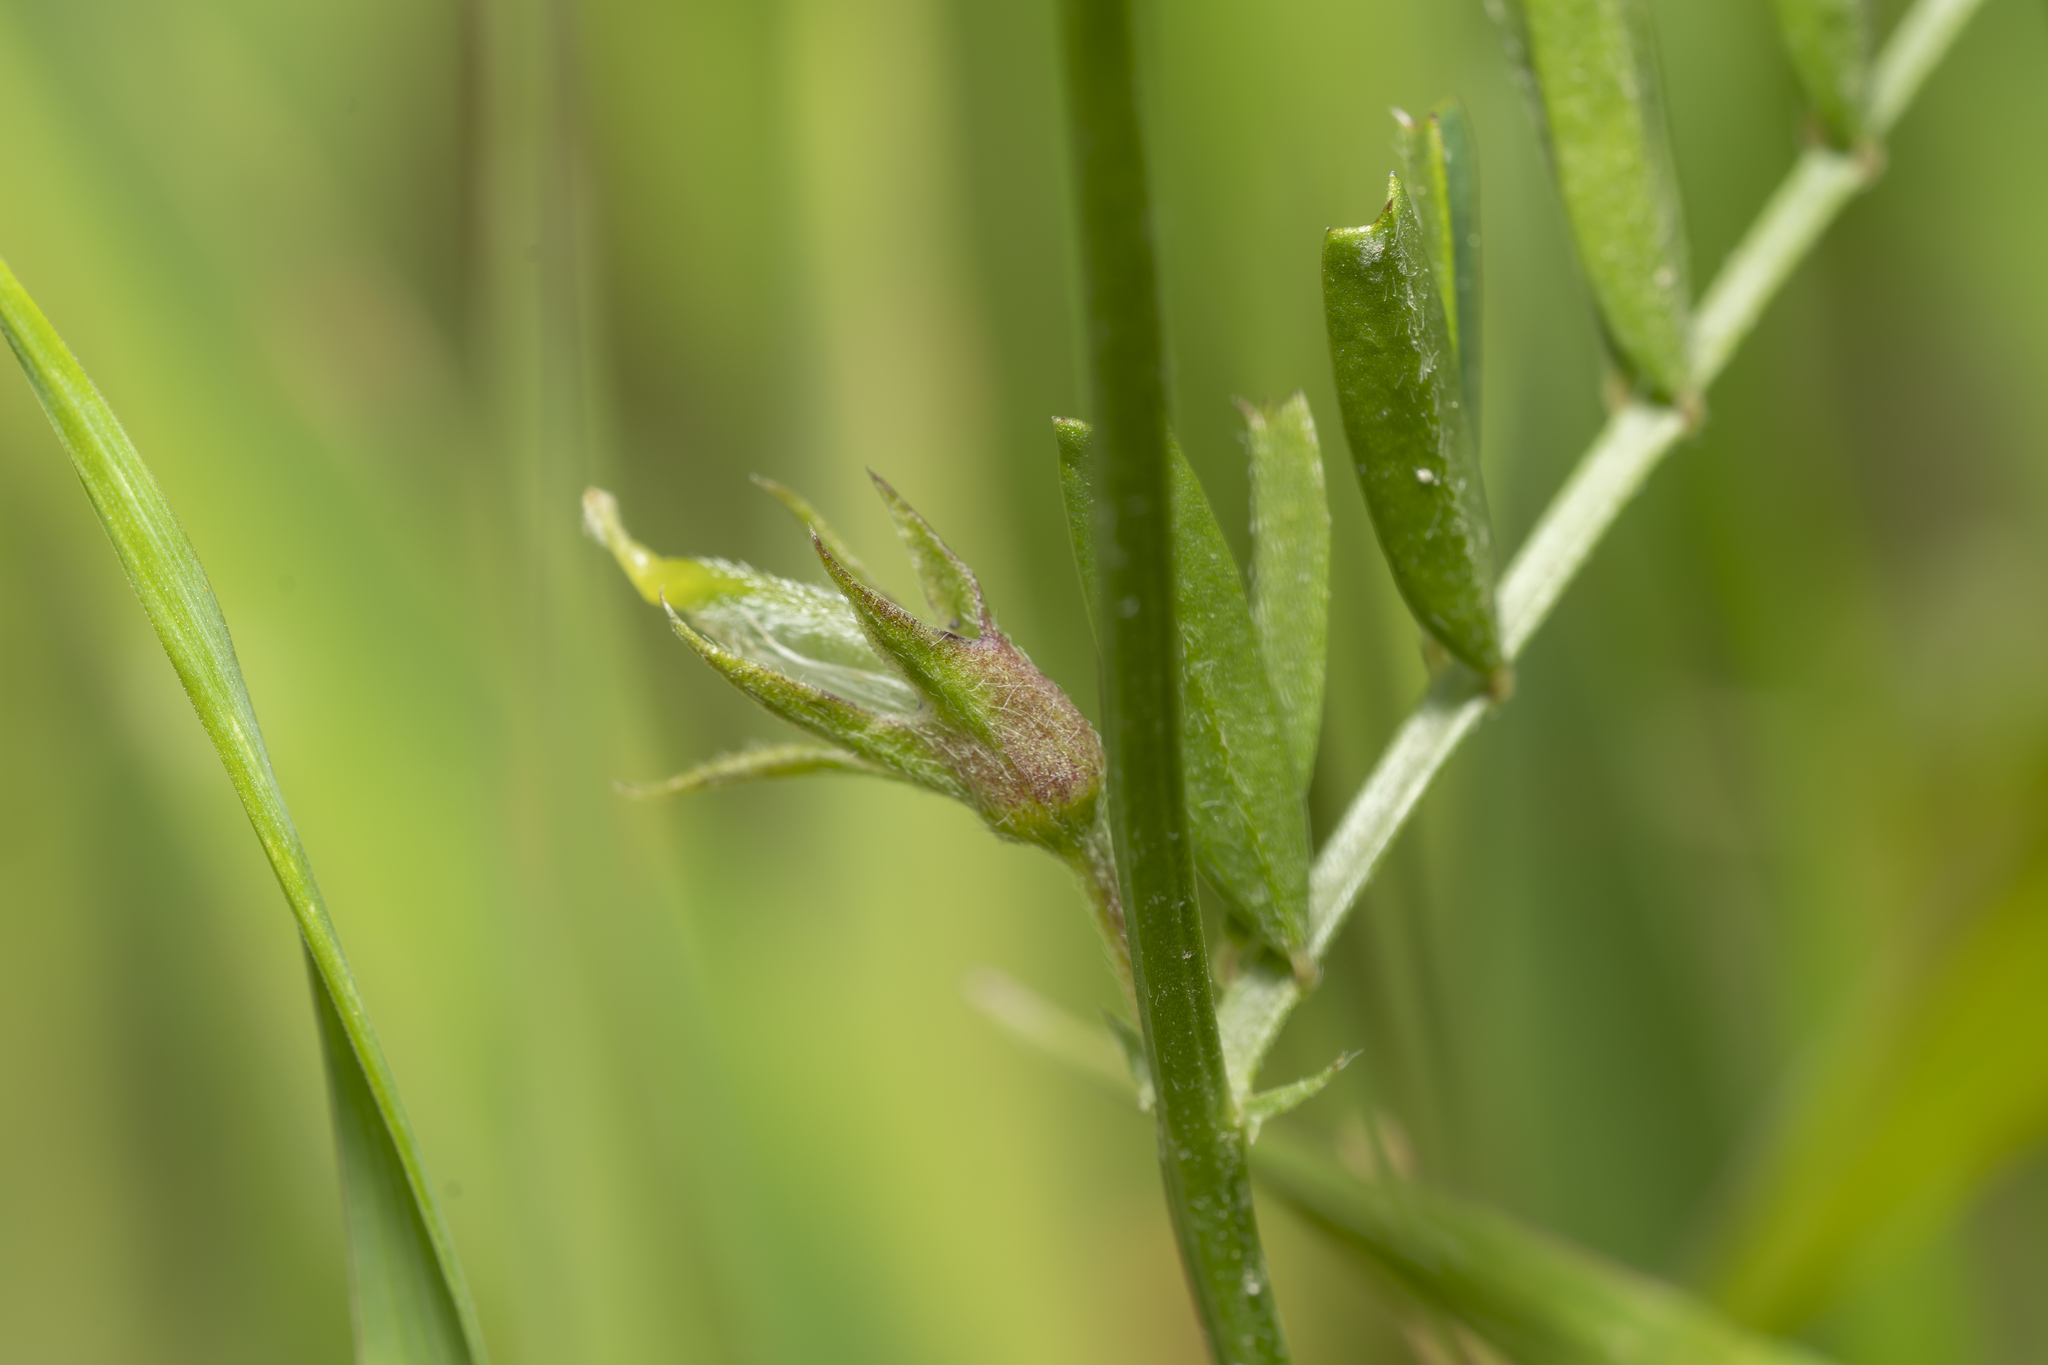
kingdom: Plantae
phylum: Tracheophyta
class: Magnoliopsida
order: Fabales
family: Fabaceae
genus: Vicia
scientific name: Vicia peregrina
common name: Broad-pod vetch
